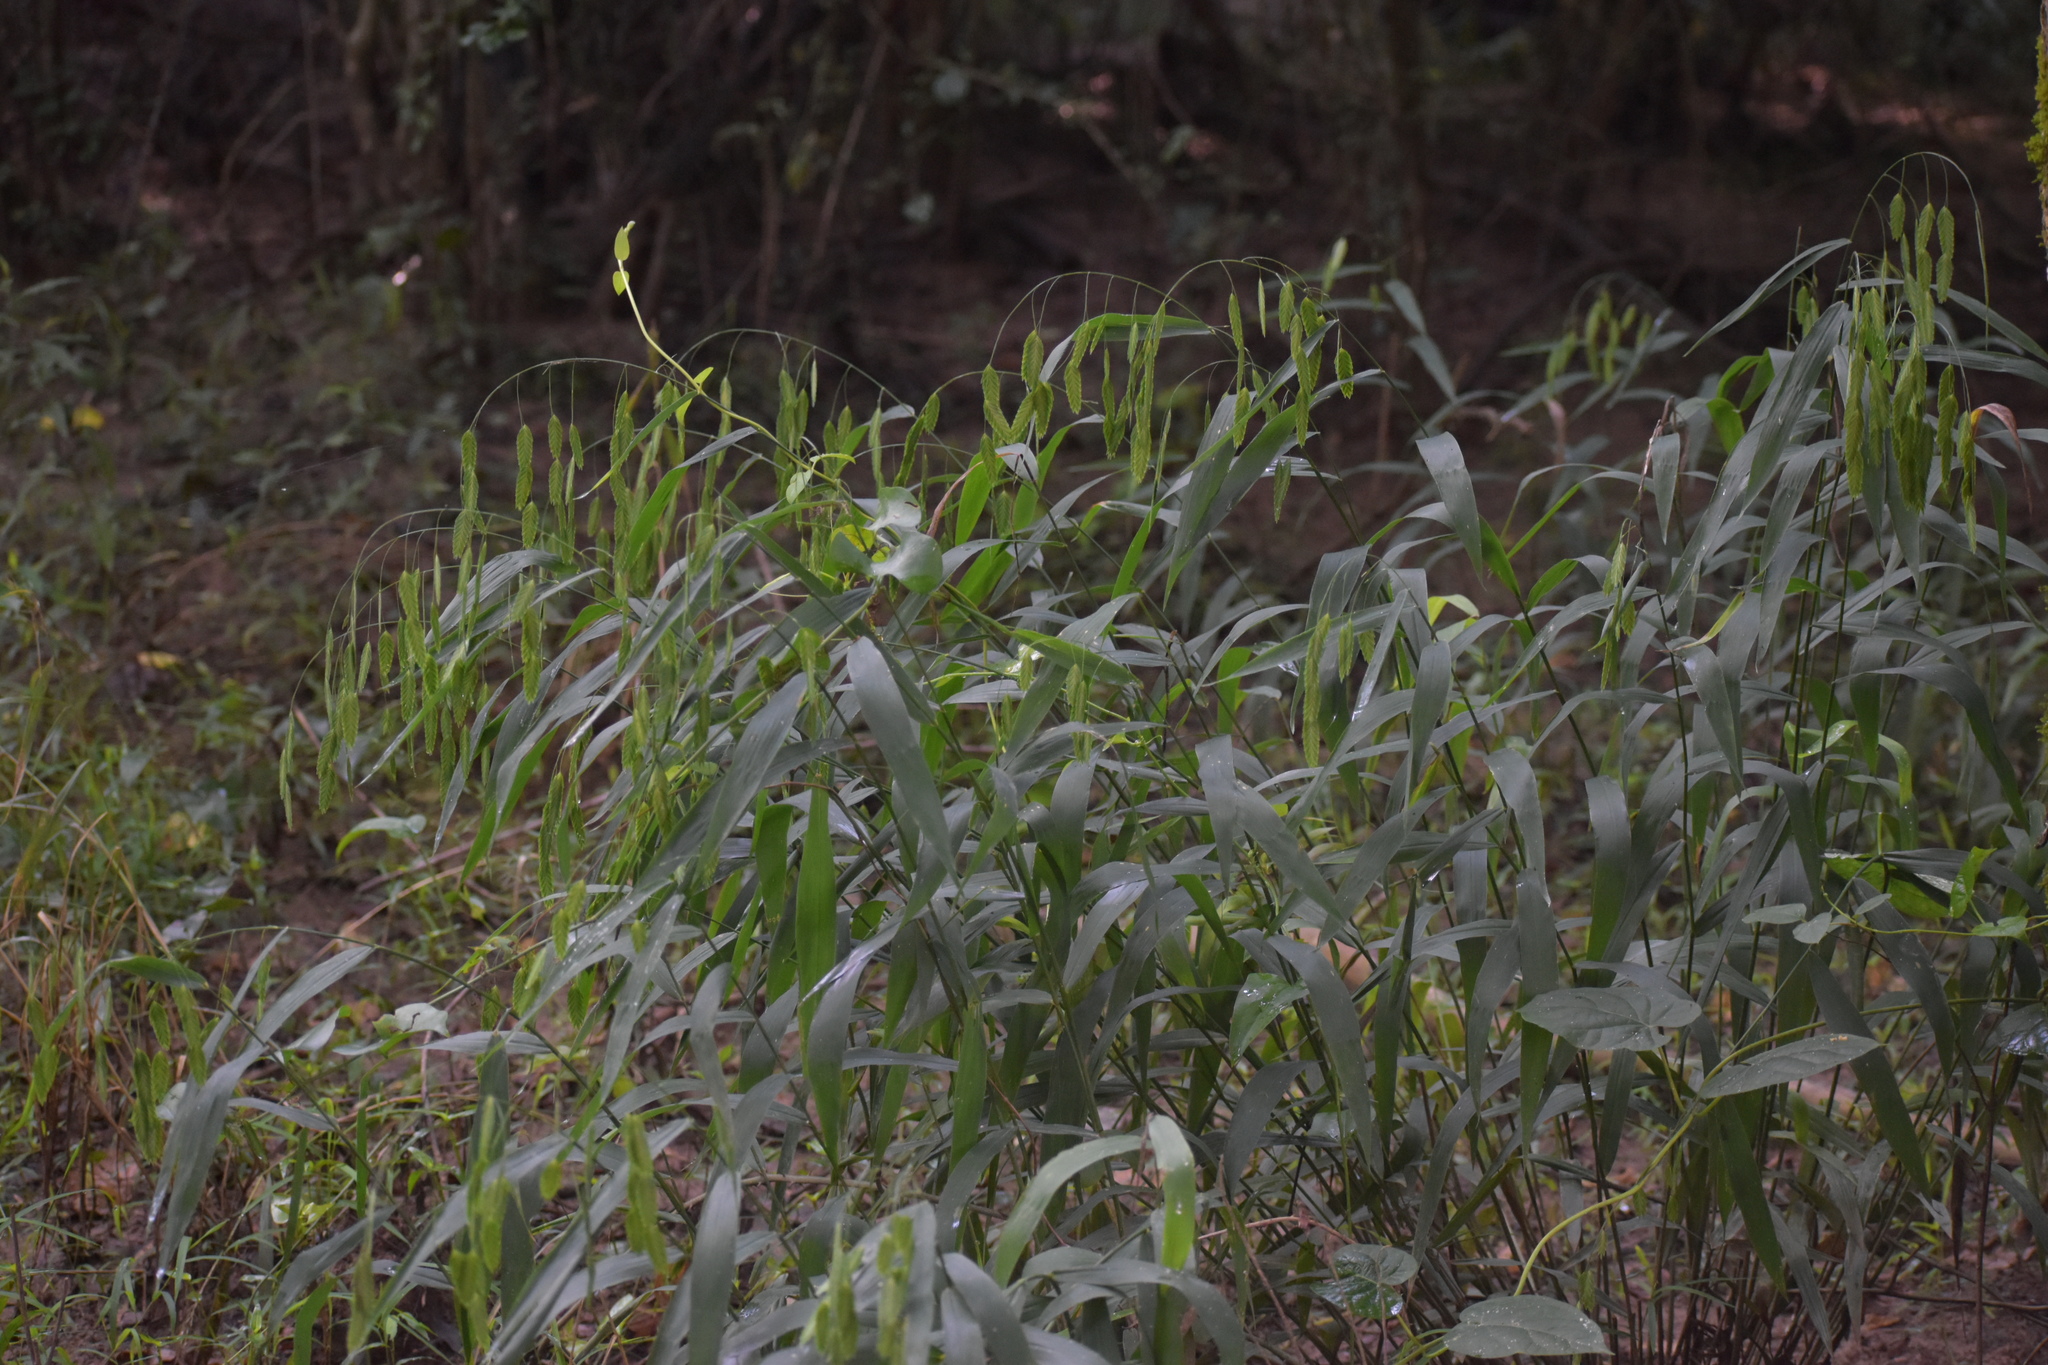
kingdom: Plantae
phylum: Tracheophyta
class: Liliopsida
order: Poales
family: Poaceae
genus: Chasmanthium
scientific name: Chasmanthium latifolium
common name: Broad-leaved chasmanthium
